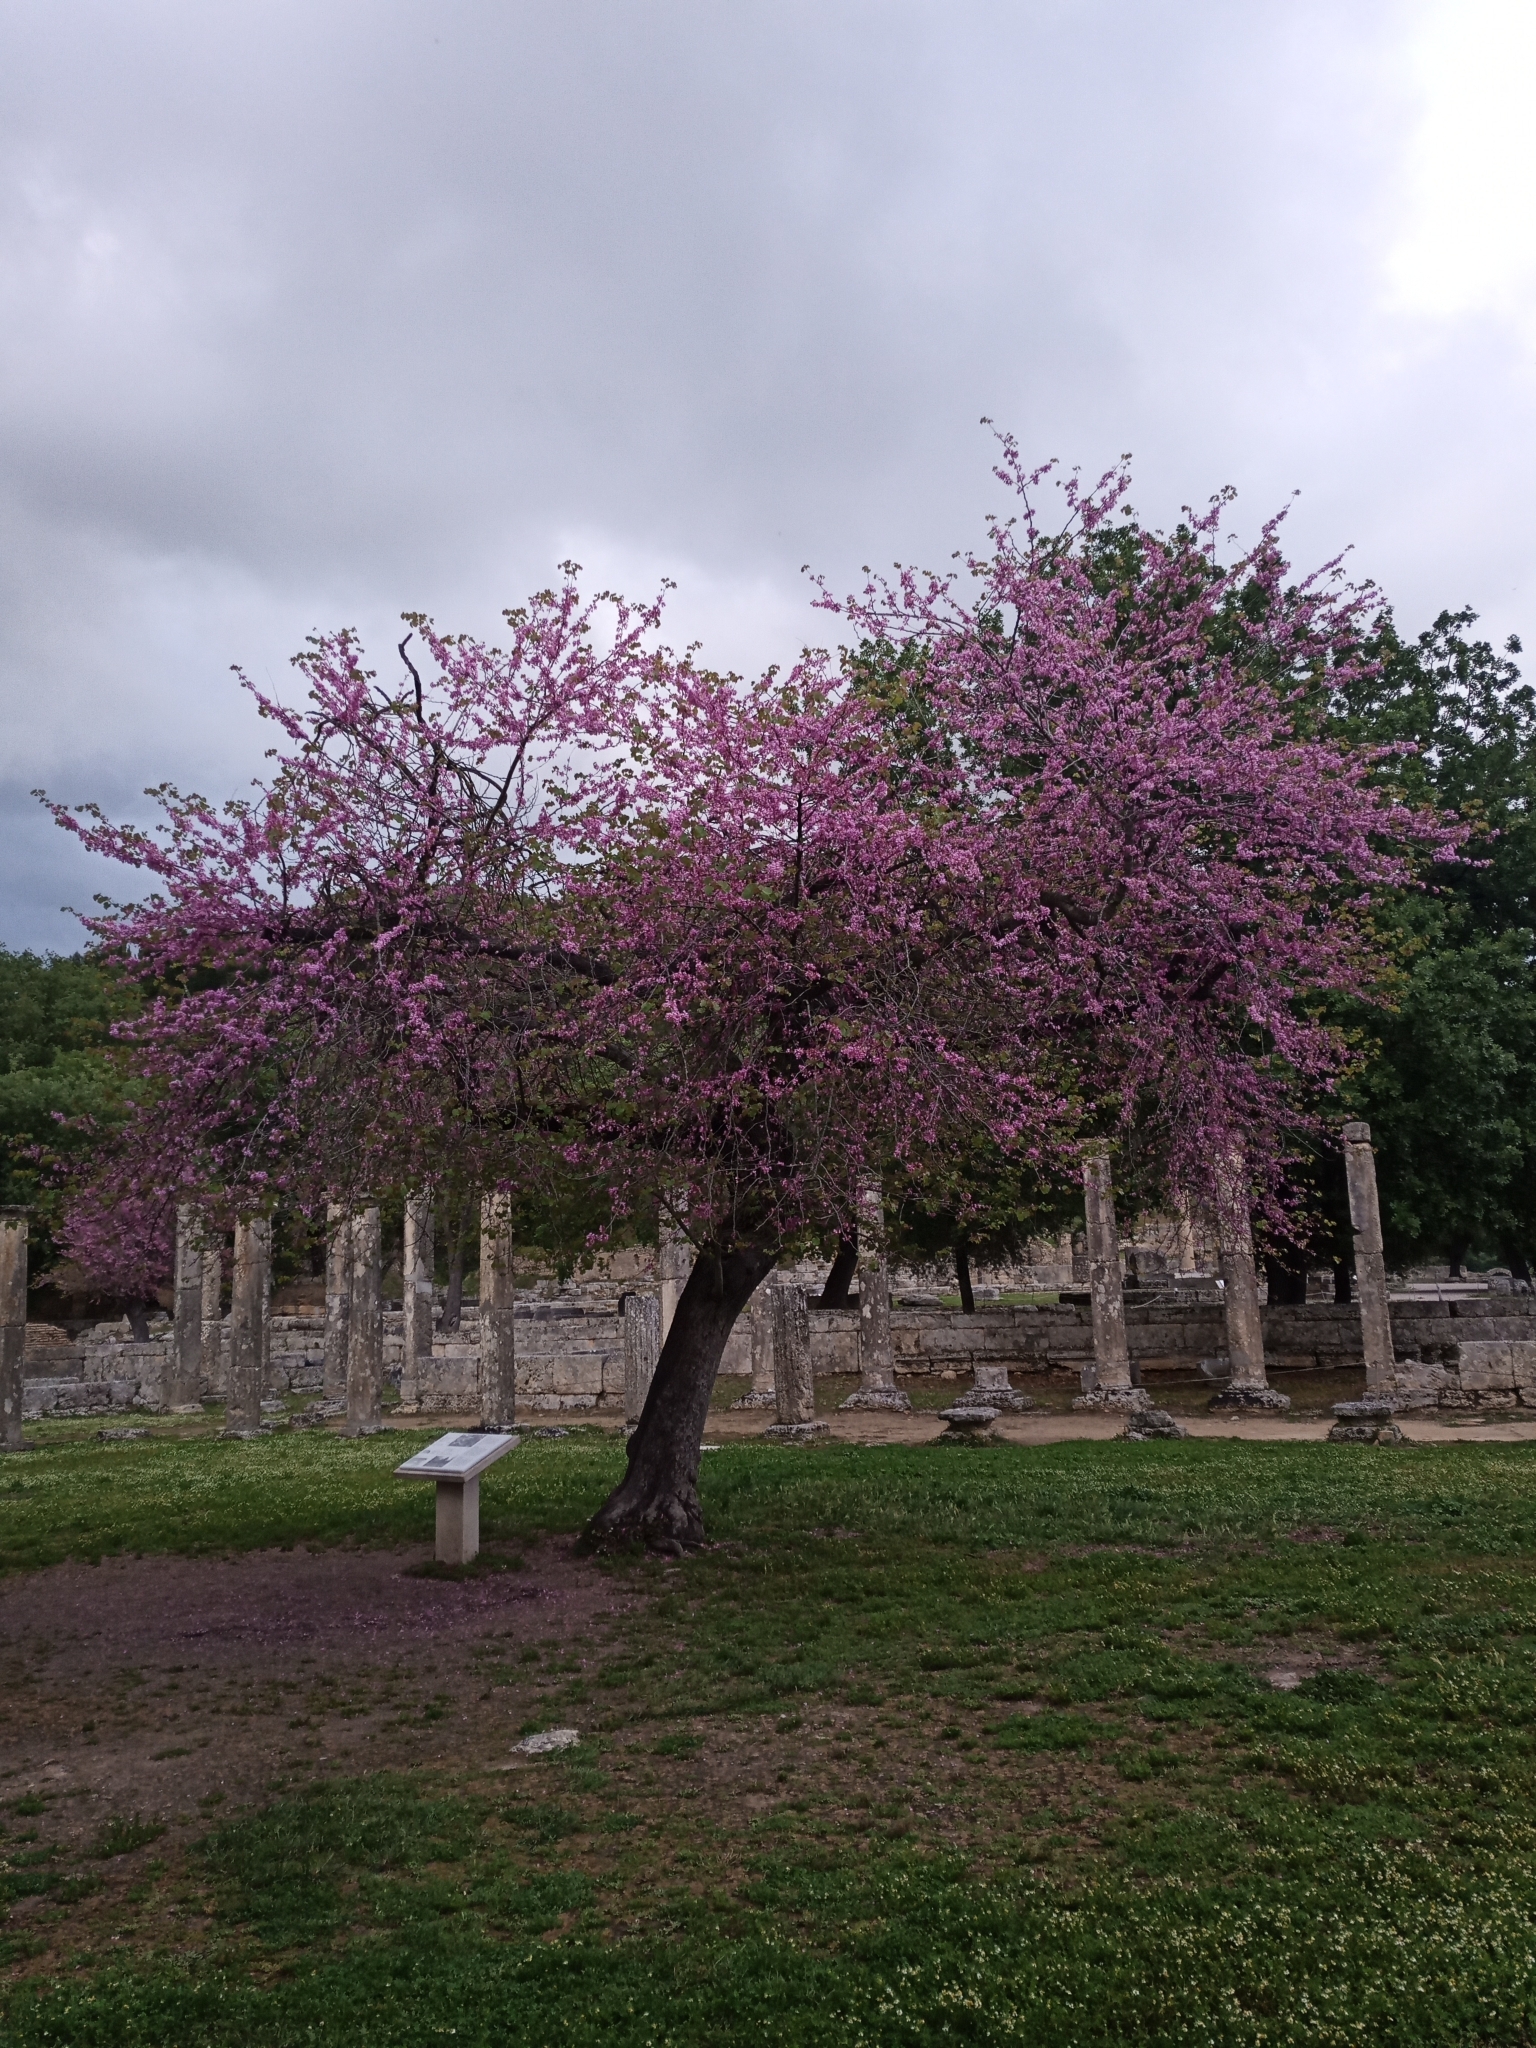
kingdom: Plantae
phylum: Tracheophyta
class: Magnoliopsida
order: Fabales
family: Fabaceae
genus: Cercis
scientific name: Cercis siliquastrum
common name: Judas tree
